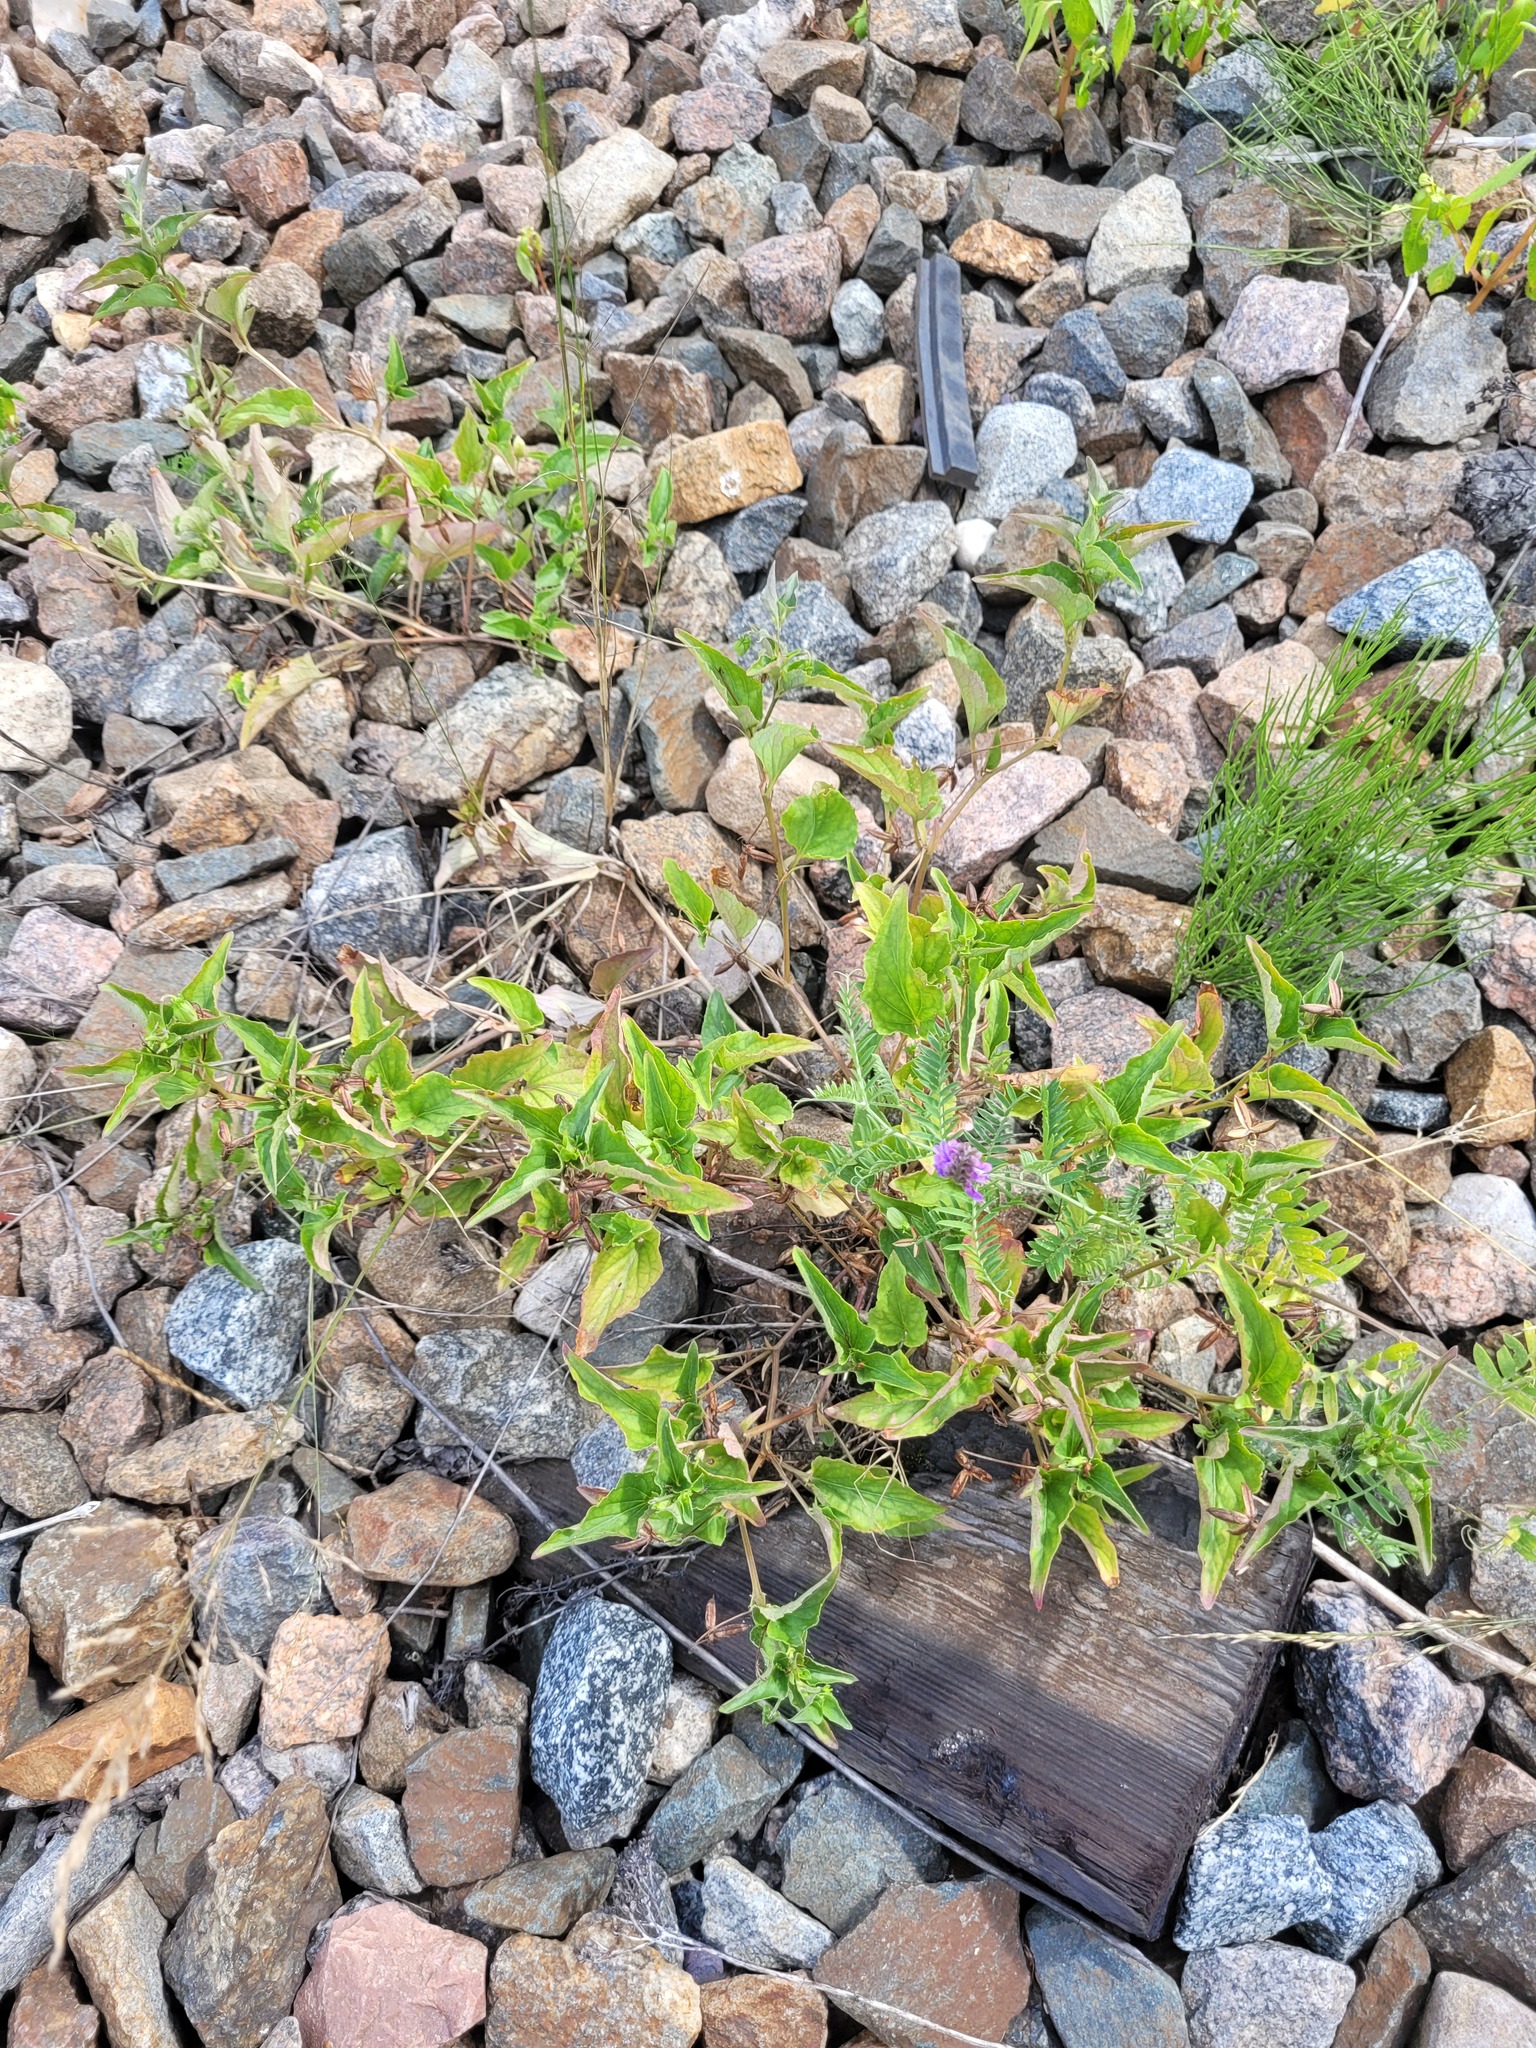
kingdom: Plantae
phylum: Tracheophyta
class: Magnoliopsida
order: Malpighiales
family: Violaceae
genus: Viola
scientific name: Viola canina
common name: Heath dog-violet
